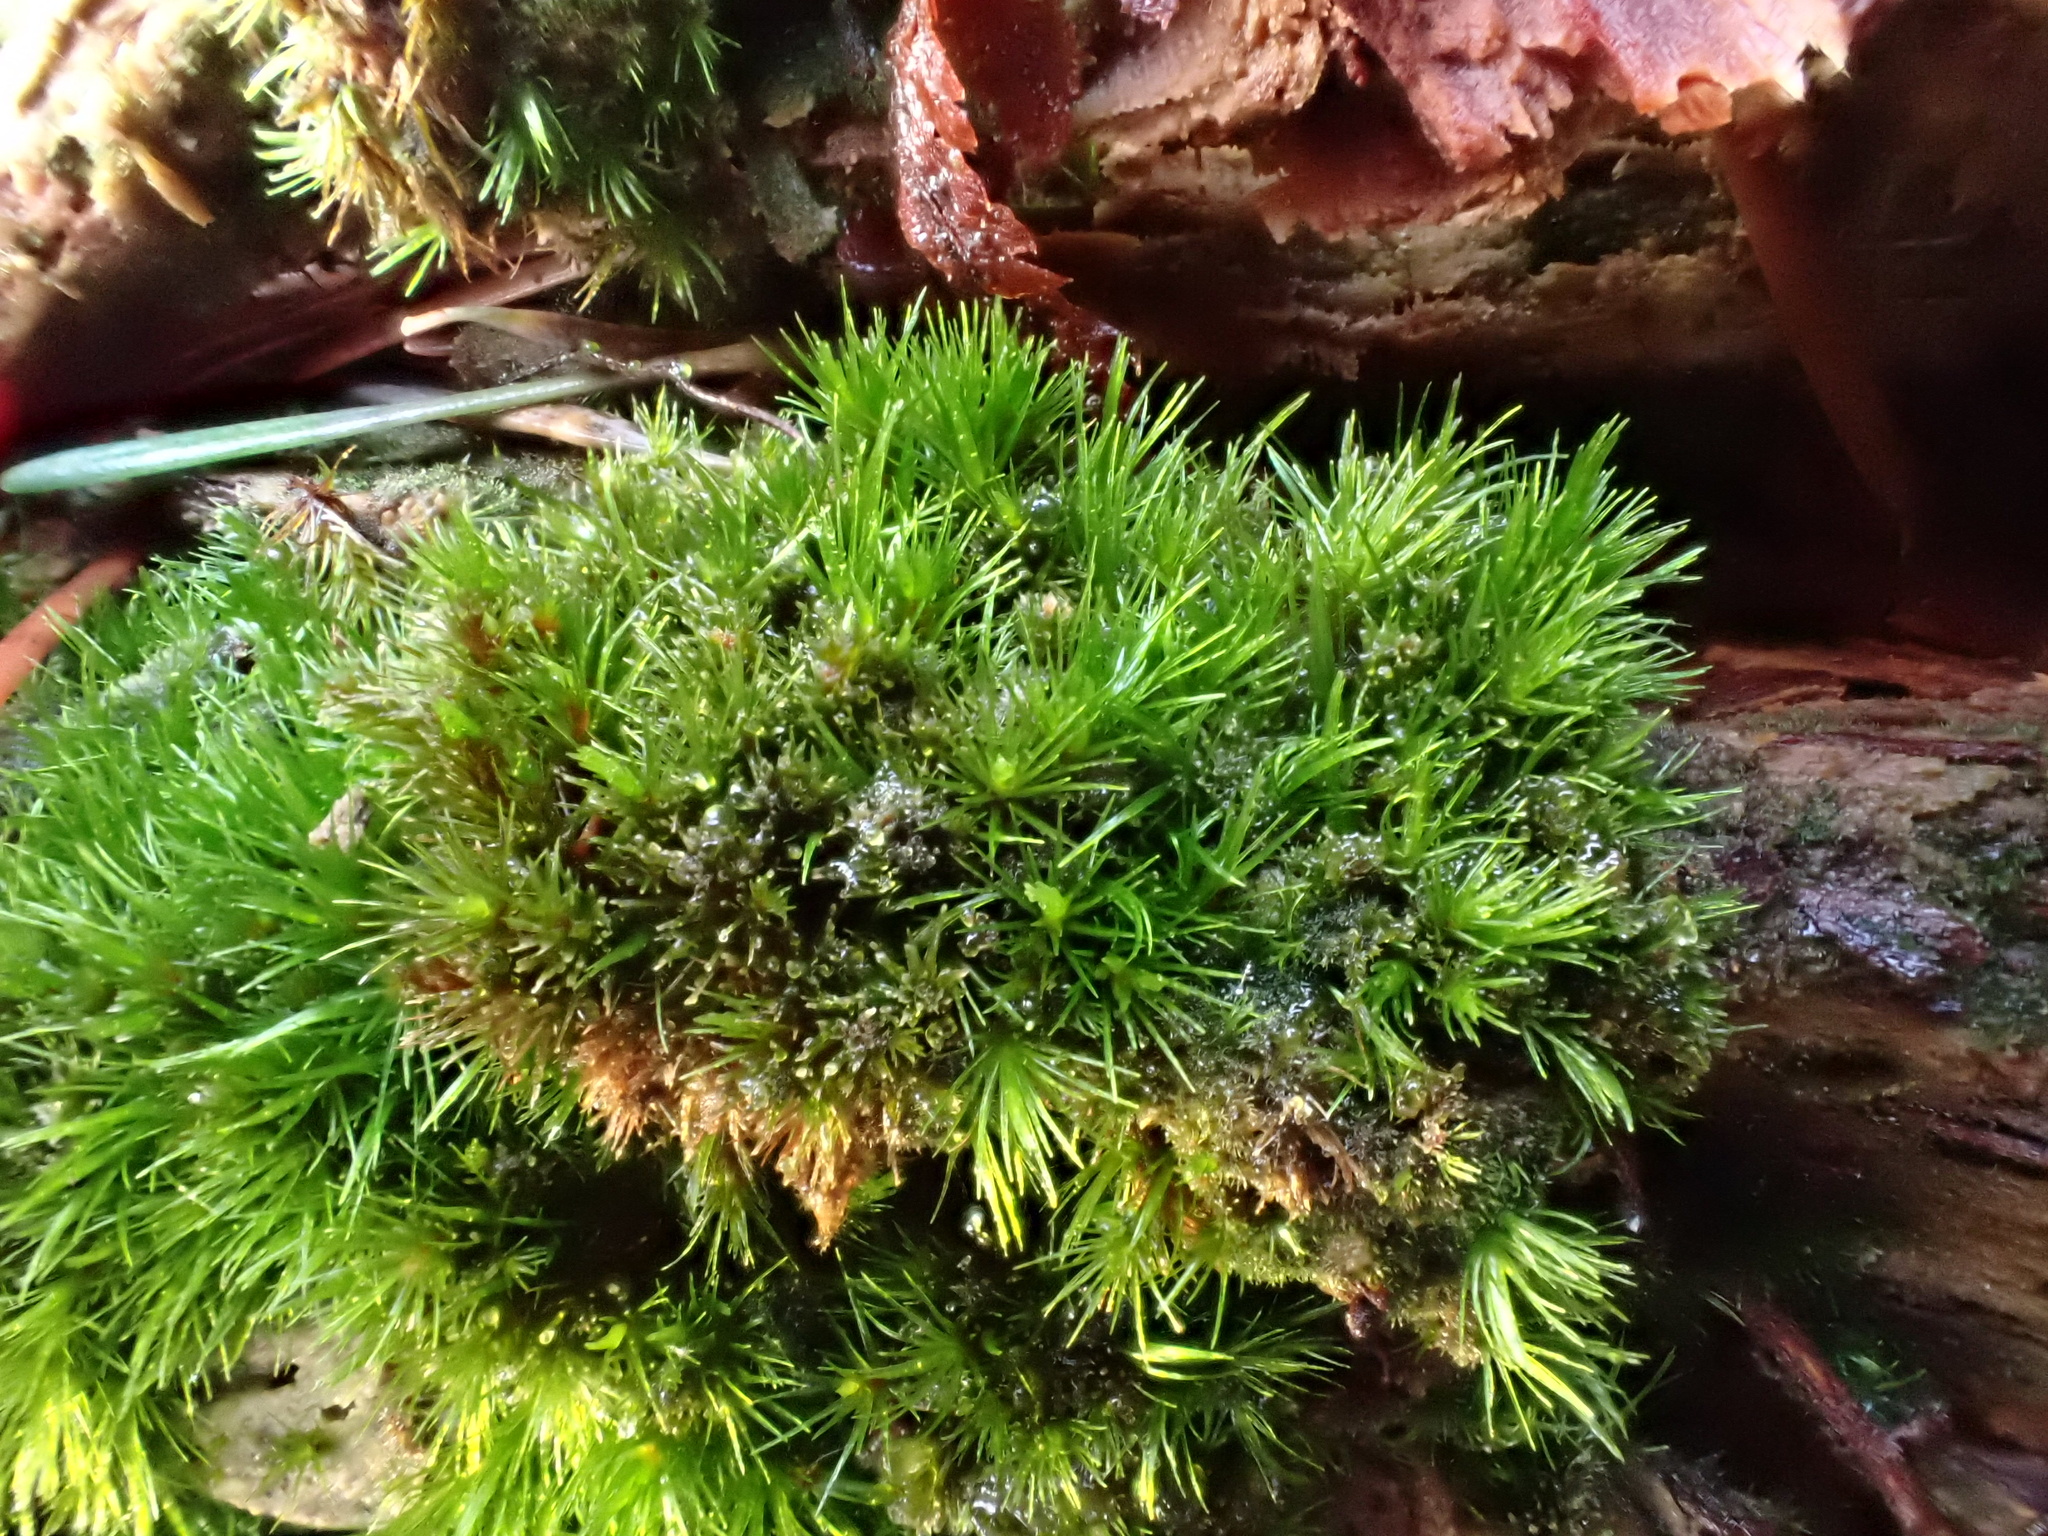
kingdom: Plantae
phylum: Bryophyta
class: Bryopsida
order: Dicranales
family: Leucobryaceae
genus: Campylopus
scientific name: Campylopus flexuosus
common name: Rusty swan-neck moss
